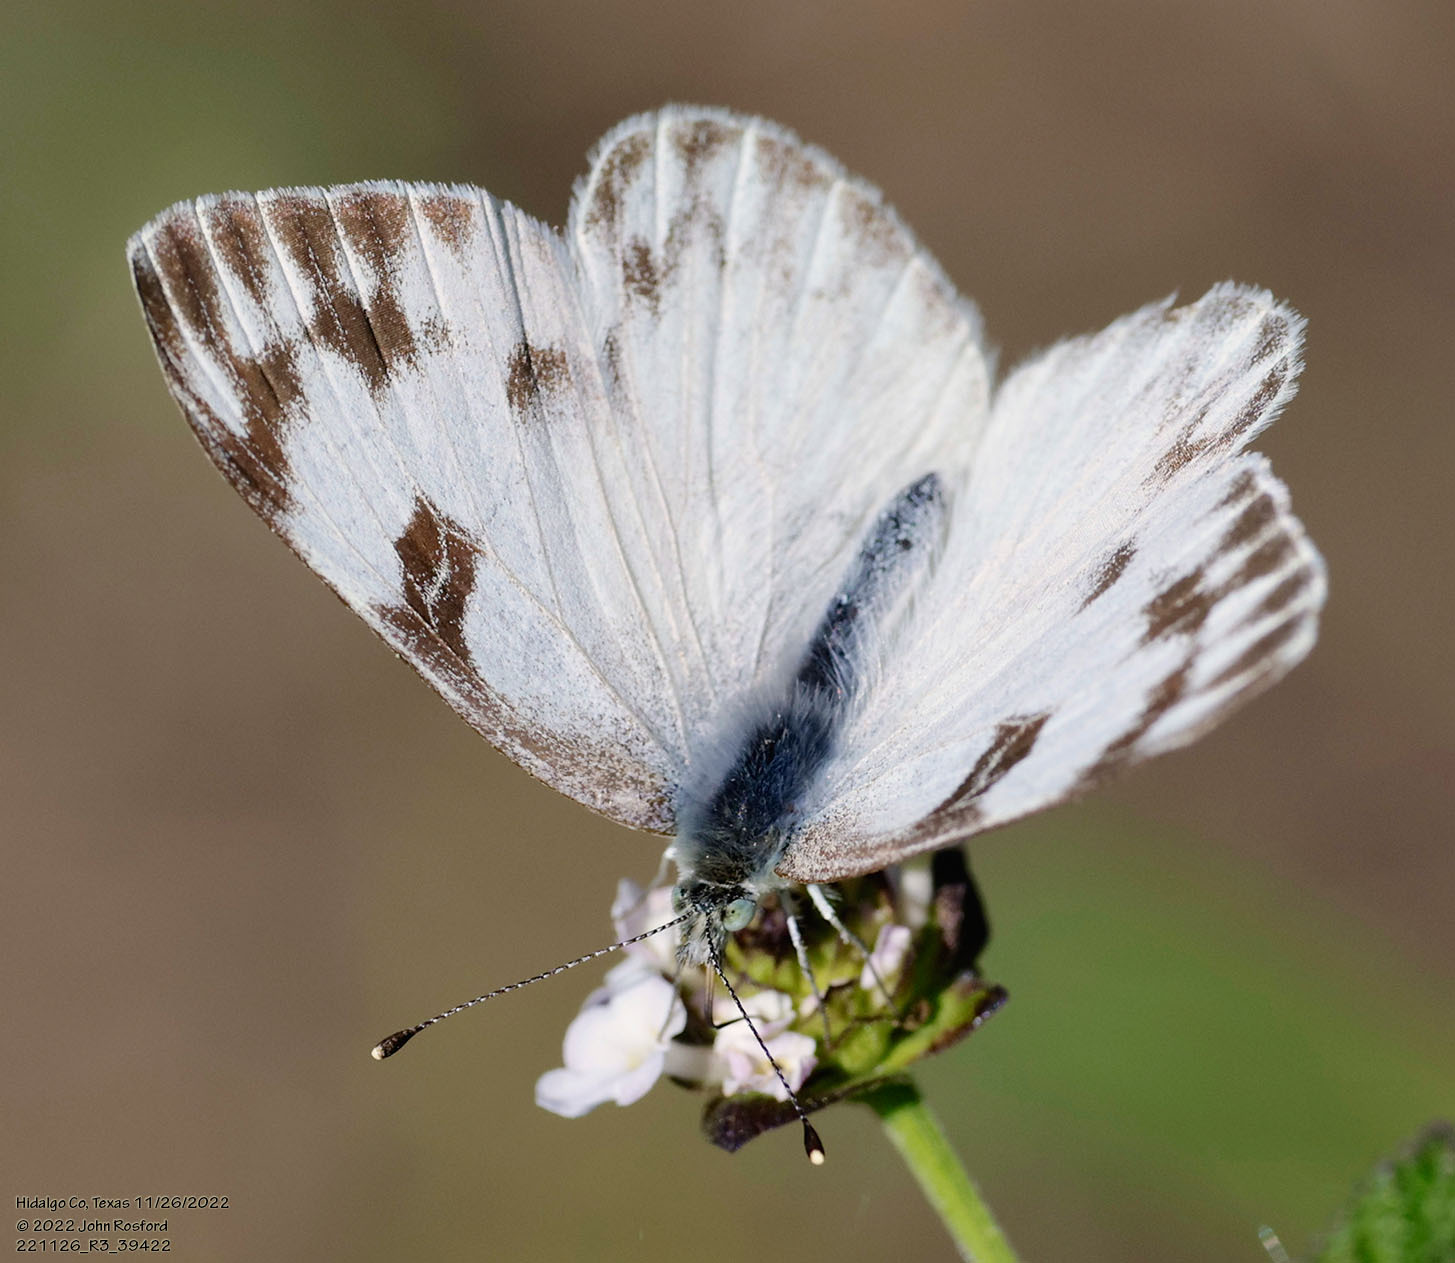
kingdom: Animalia
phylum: Arthropoda
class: Insecta
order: Lepidoptera
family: Pieridae
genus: Pontia
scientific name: Pontia protodice
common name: Checkered white
